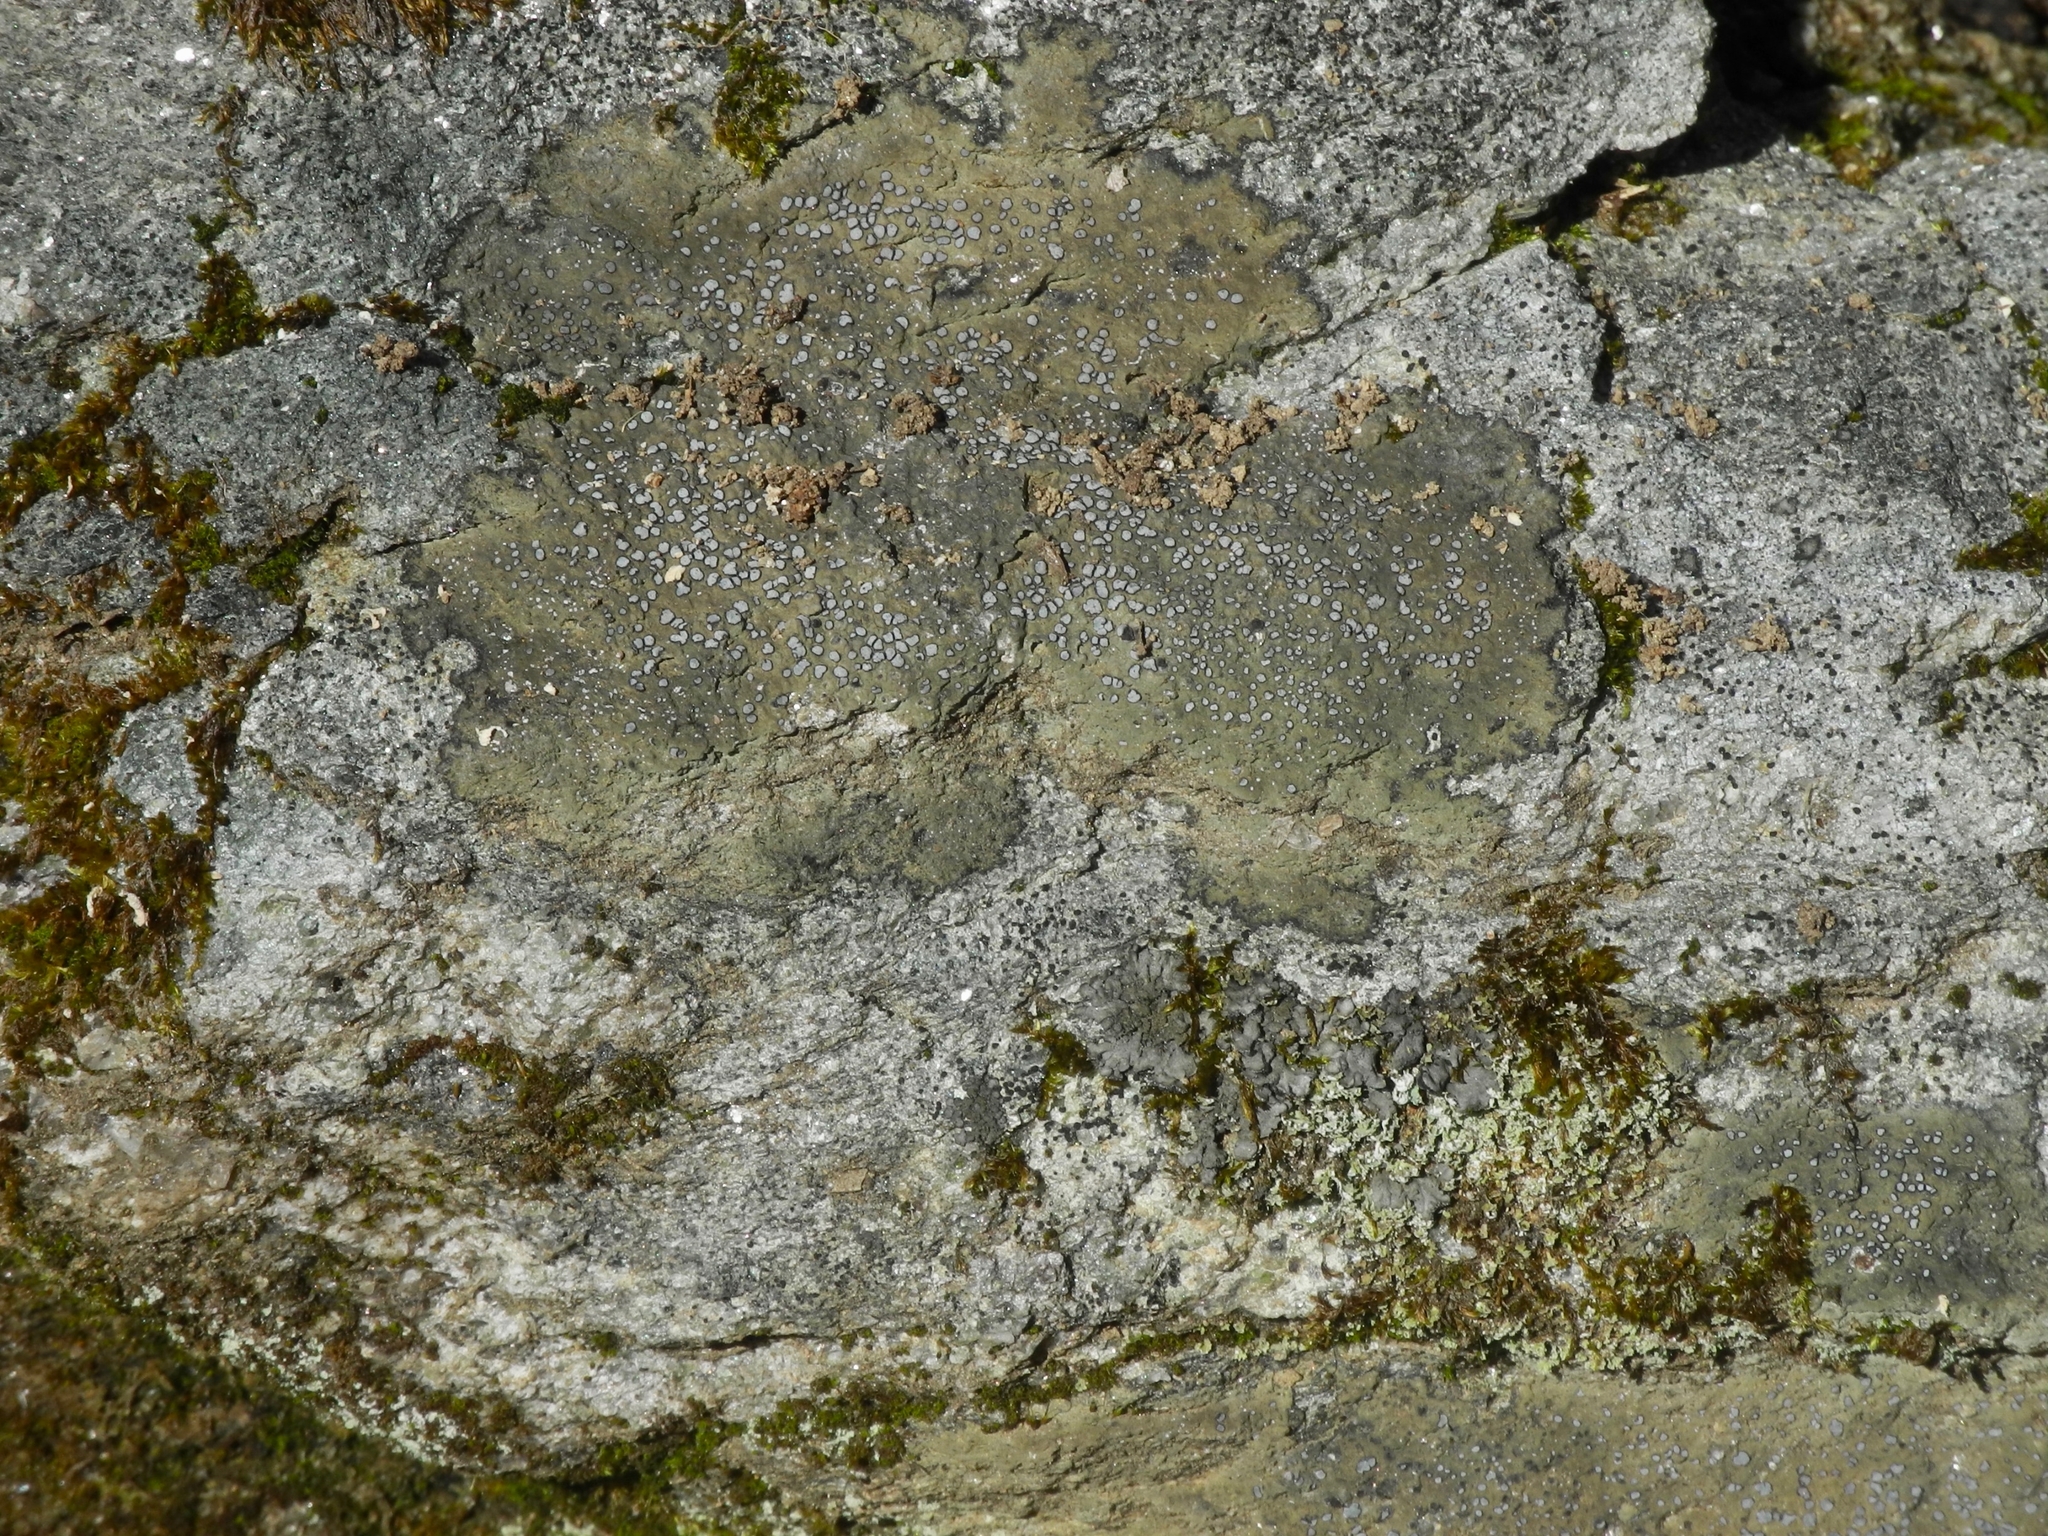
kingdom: Fungi
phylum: Ascomycota
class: Lecanoromycetes
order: Lecideales
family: Lecideaceae
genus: Porpidia
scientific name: Porpidia albocaerulescens
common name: Smokey-eyed boulder lichen
